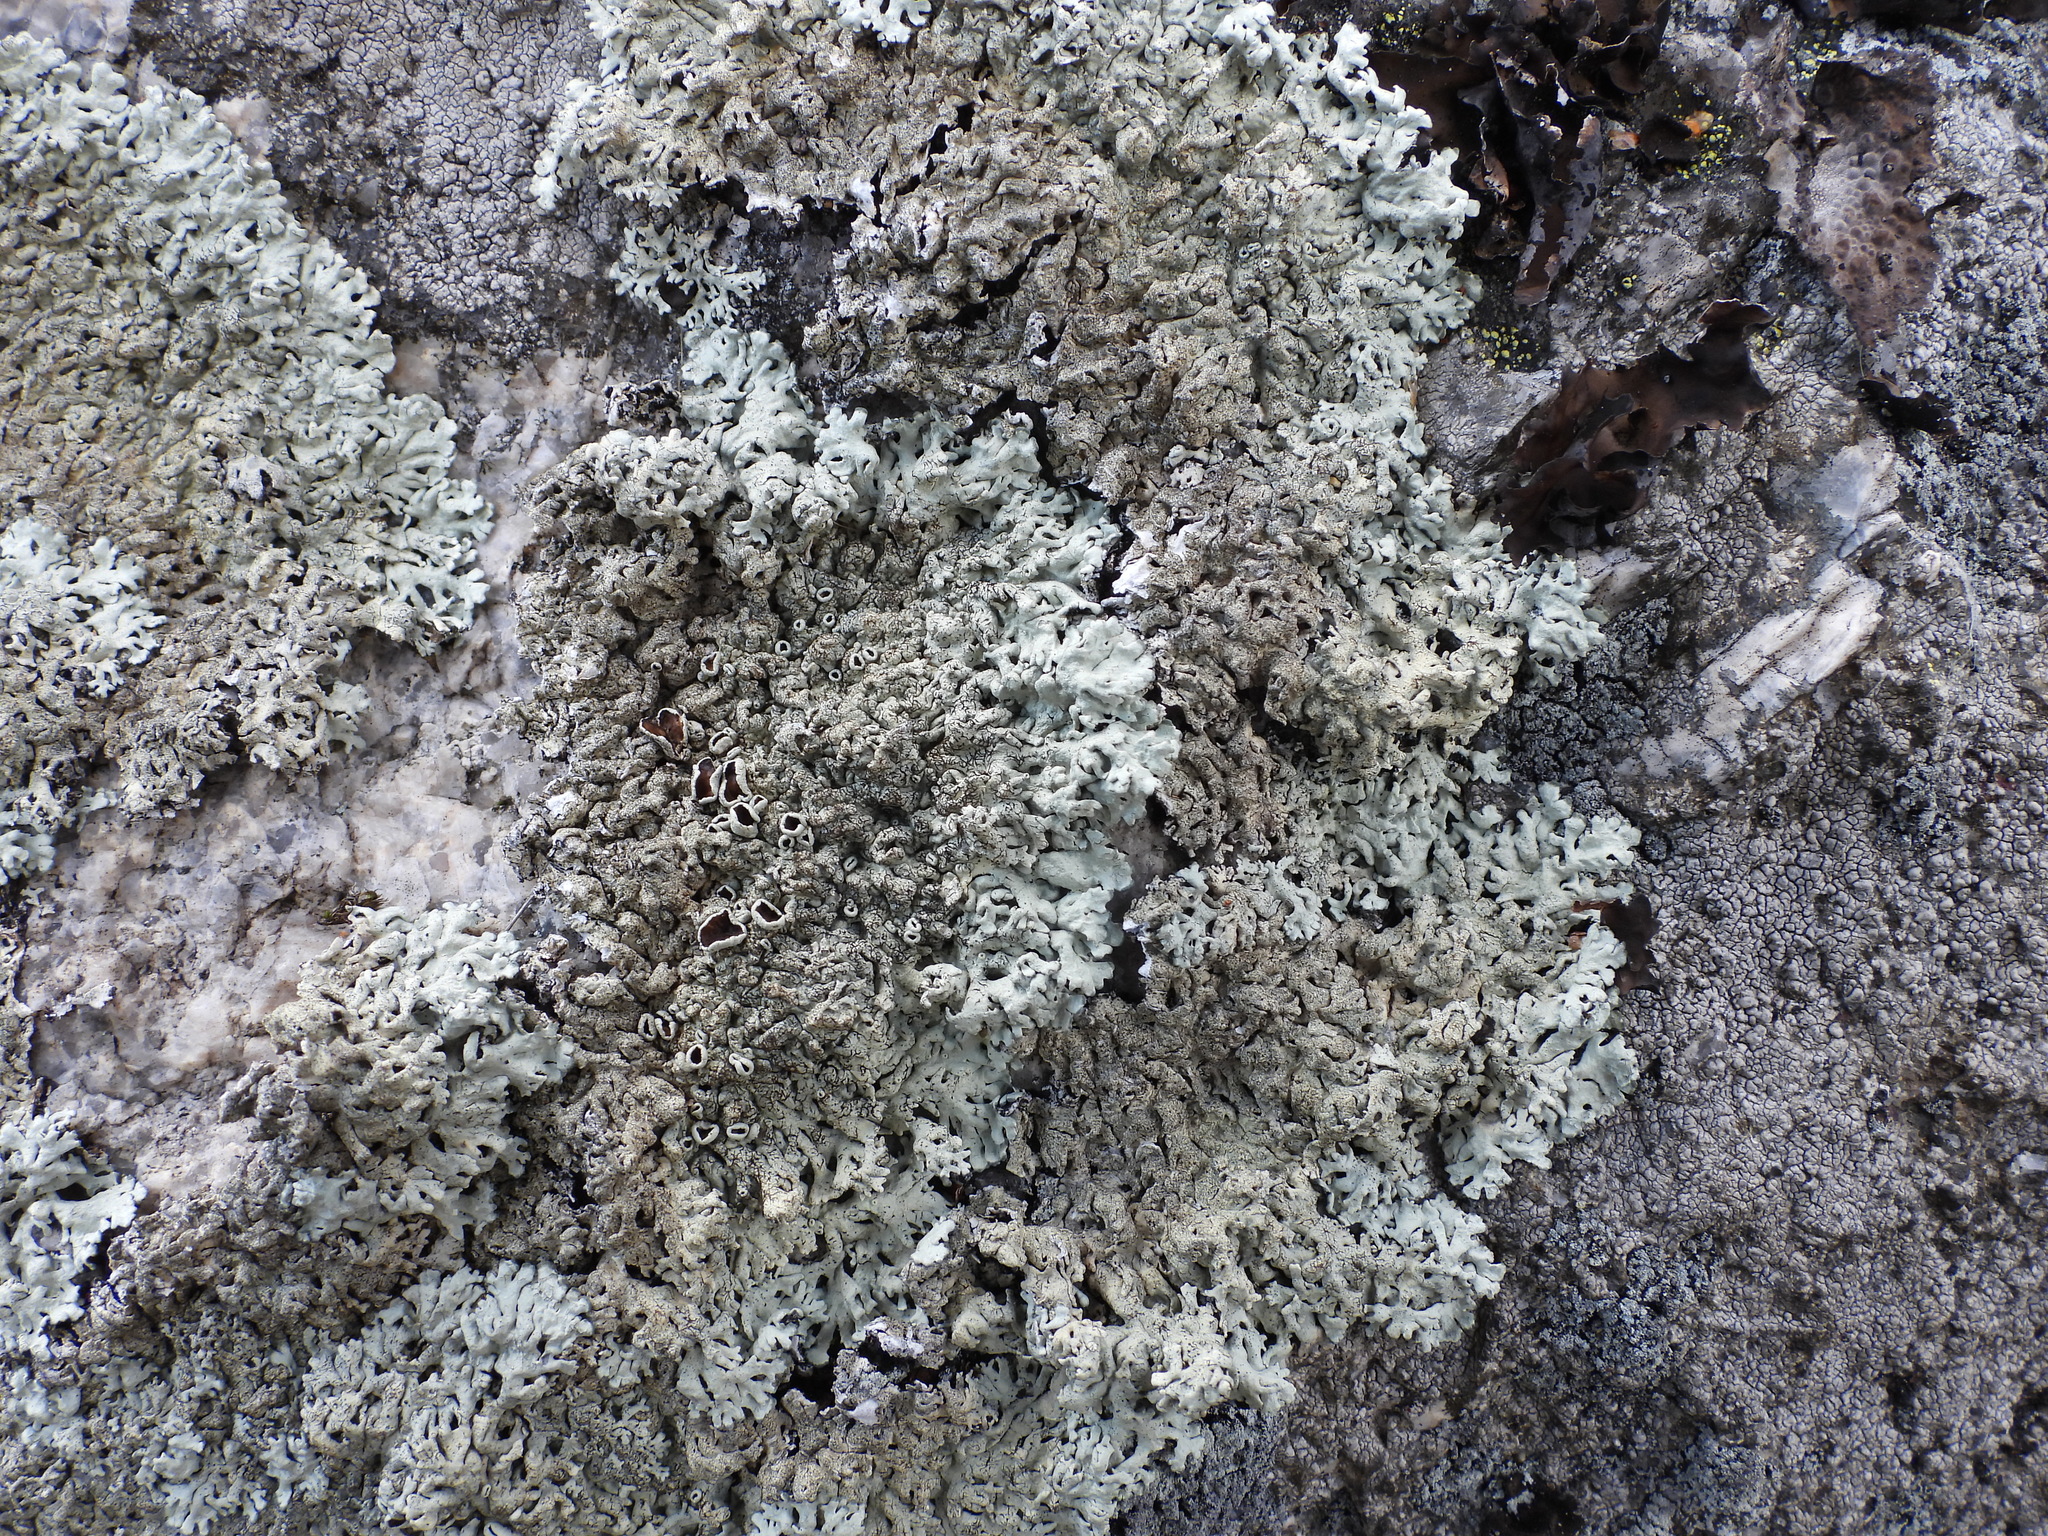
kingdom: Fungi
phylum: Ascomycota
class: Lecanoromycetes
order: Lecanorales
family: Parmeliaceae
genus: Arctoparmelia
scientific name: Arctoparmelia centrifuga
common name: Concentric ring lichen
